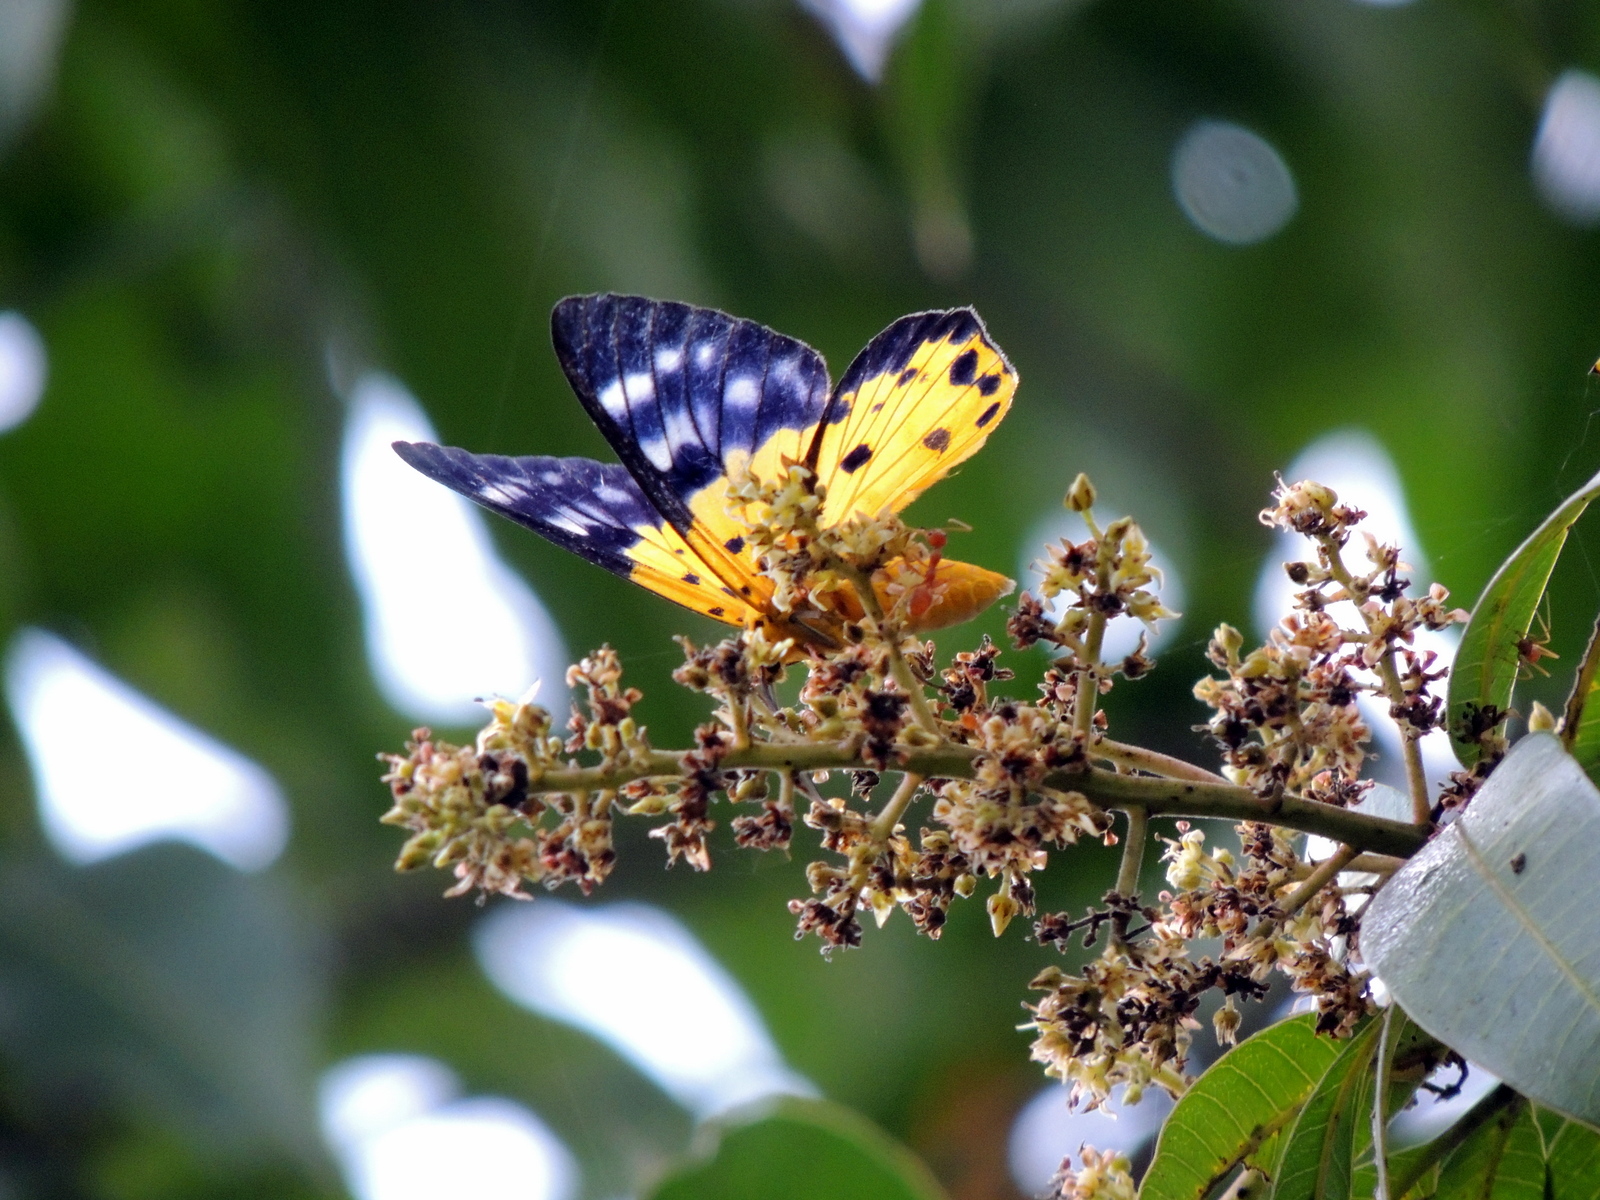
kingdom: Animalia
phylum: Arthropoda
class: Insecta
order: Lepidoptera
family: Geometridae
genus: Dysphania
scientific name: Dysphania sagana
